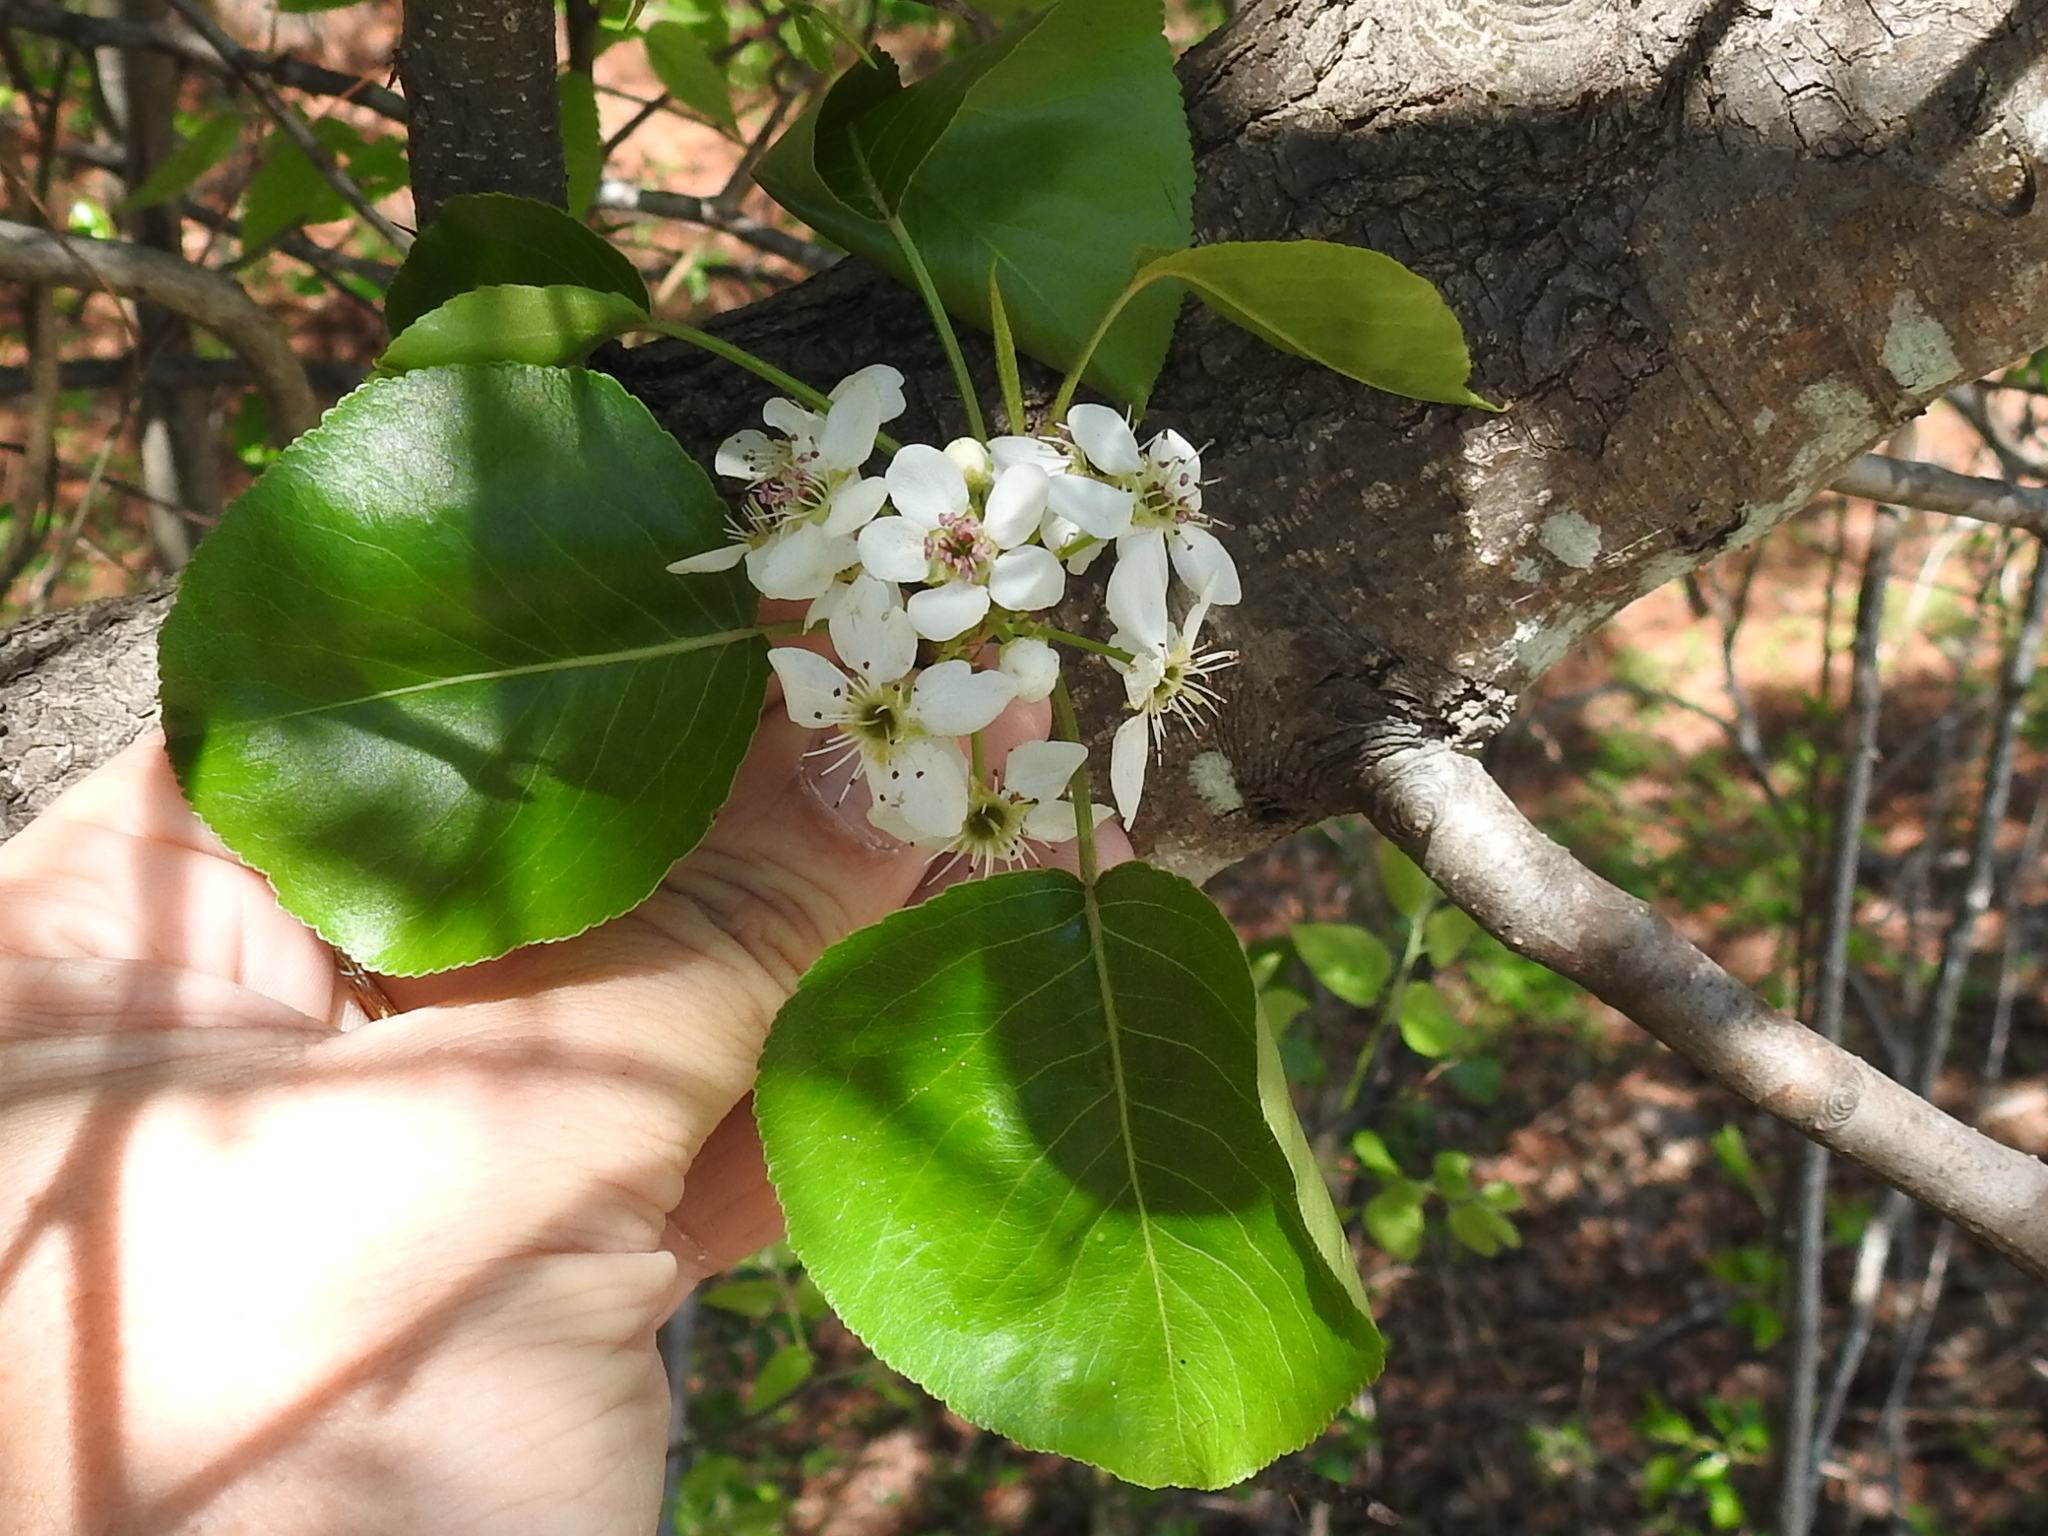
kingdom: Plantae
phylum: Tracheophyta
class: Magnoliopsida
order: Rosales
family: Rosaceae
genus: Pyrus
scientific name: Pyrus calleryana
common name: Callery pear
